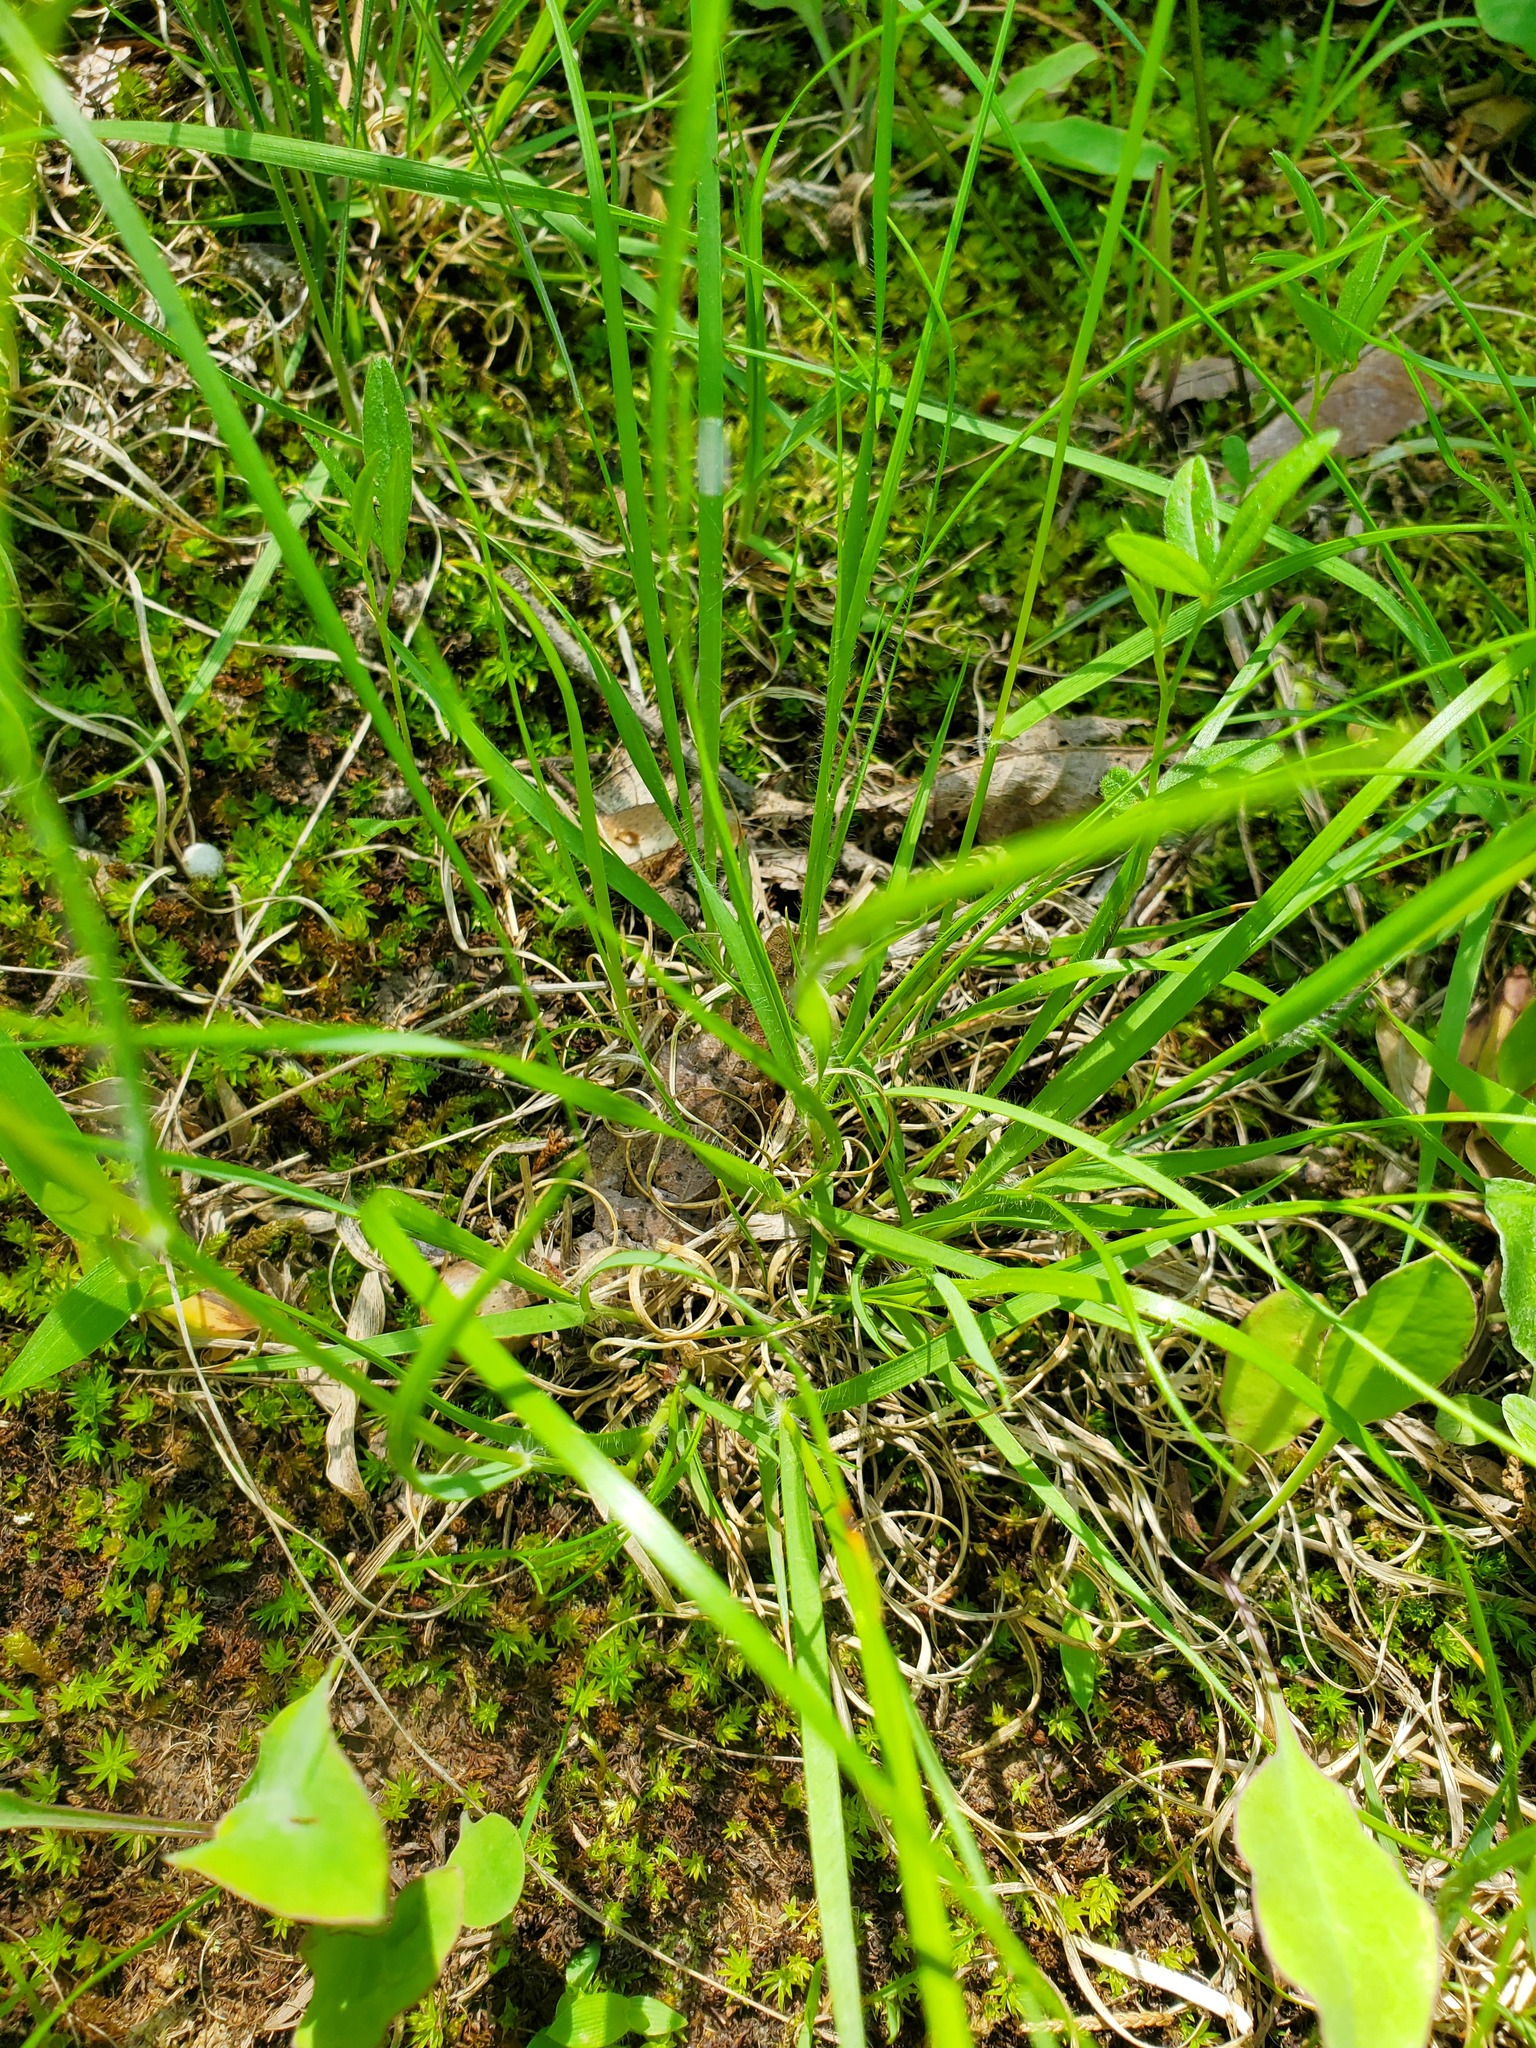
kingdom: Plantae
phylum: Tracheophyta
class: Liliopsida
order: Poales
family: Poaceae
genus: Danthonia
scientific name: Danthonia spicata
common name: Common wild oatgrass
